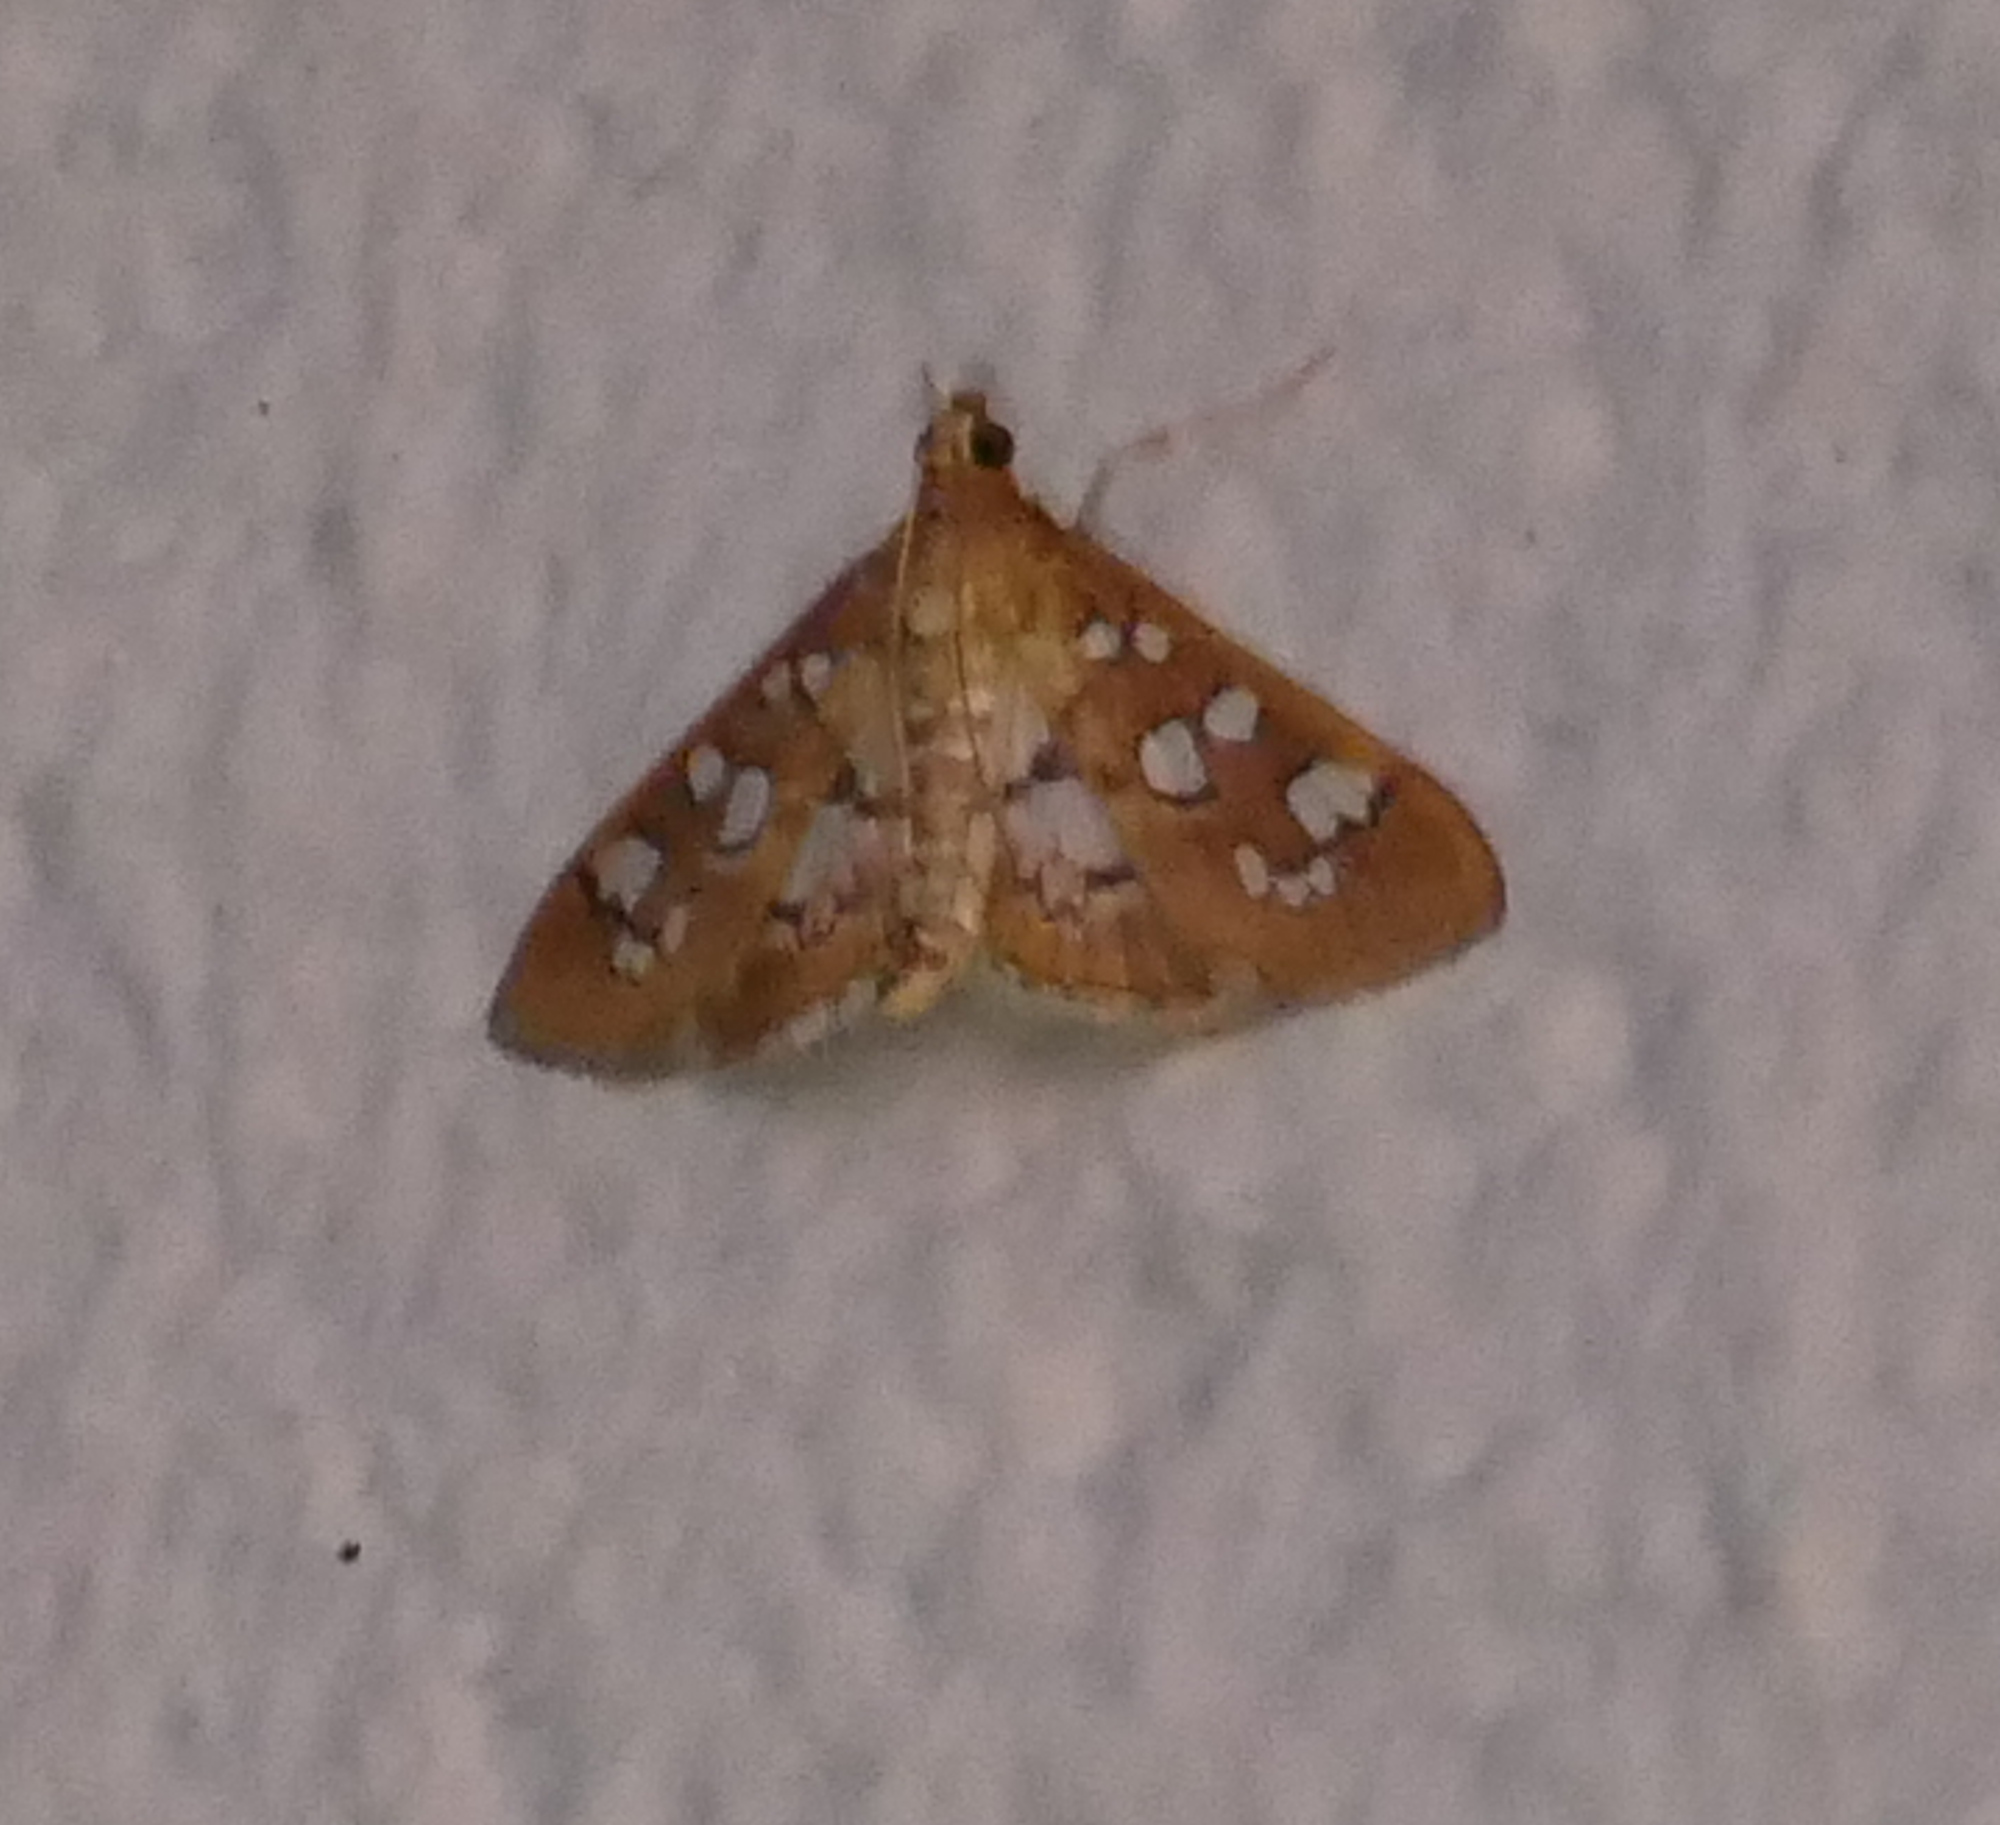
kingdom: Animalia
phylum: Arthropoda
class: Insecta
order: Lepidoptera
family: Crambidae
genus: Samea
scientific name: Samea baccatalis
